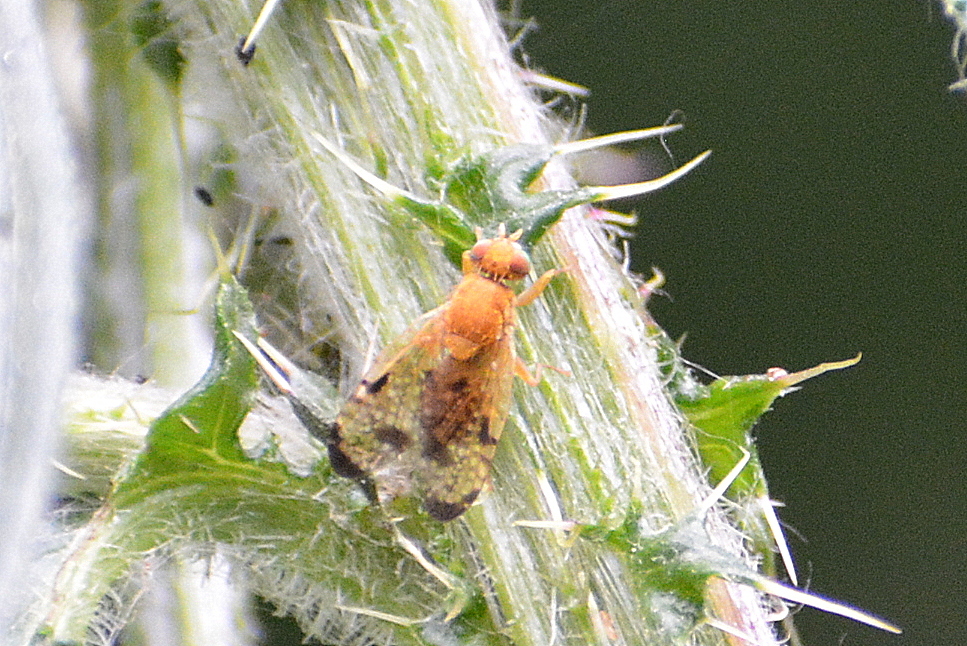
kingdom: Animalia
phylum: Arthropoda
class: Insecta
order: Diptera
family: Tephritidae
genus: Xyphosia
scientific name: Xyphosia miliaria
